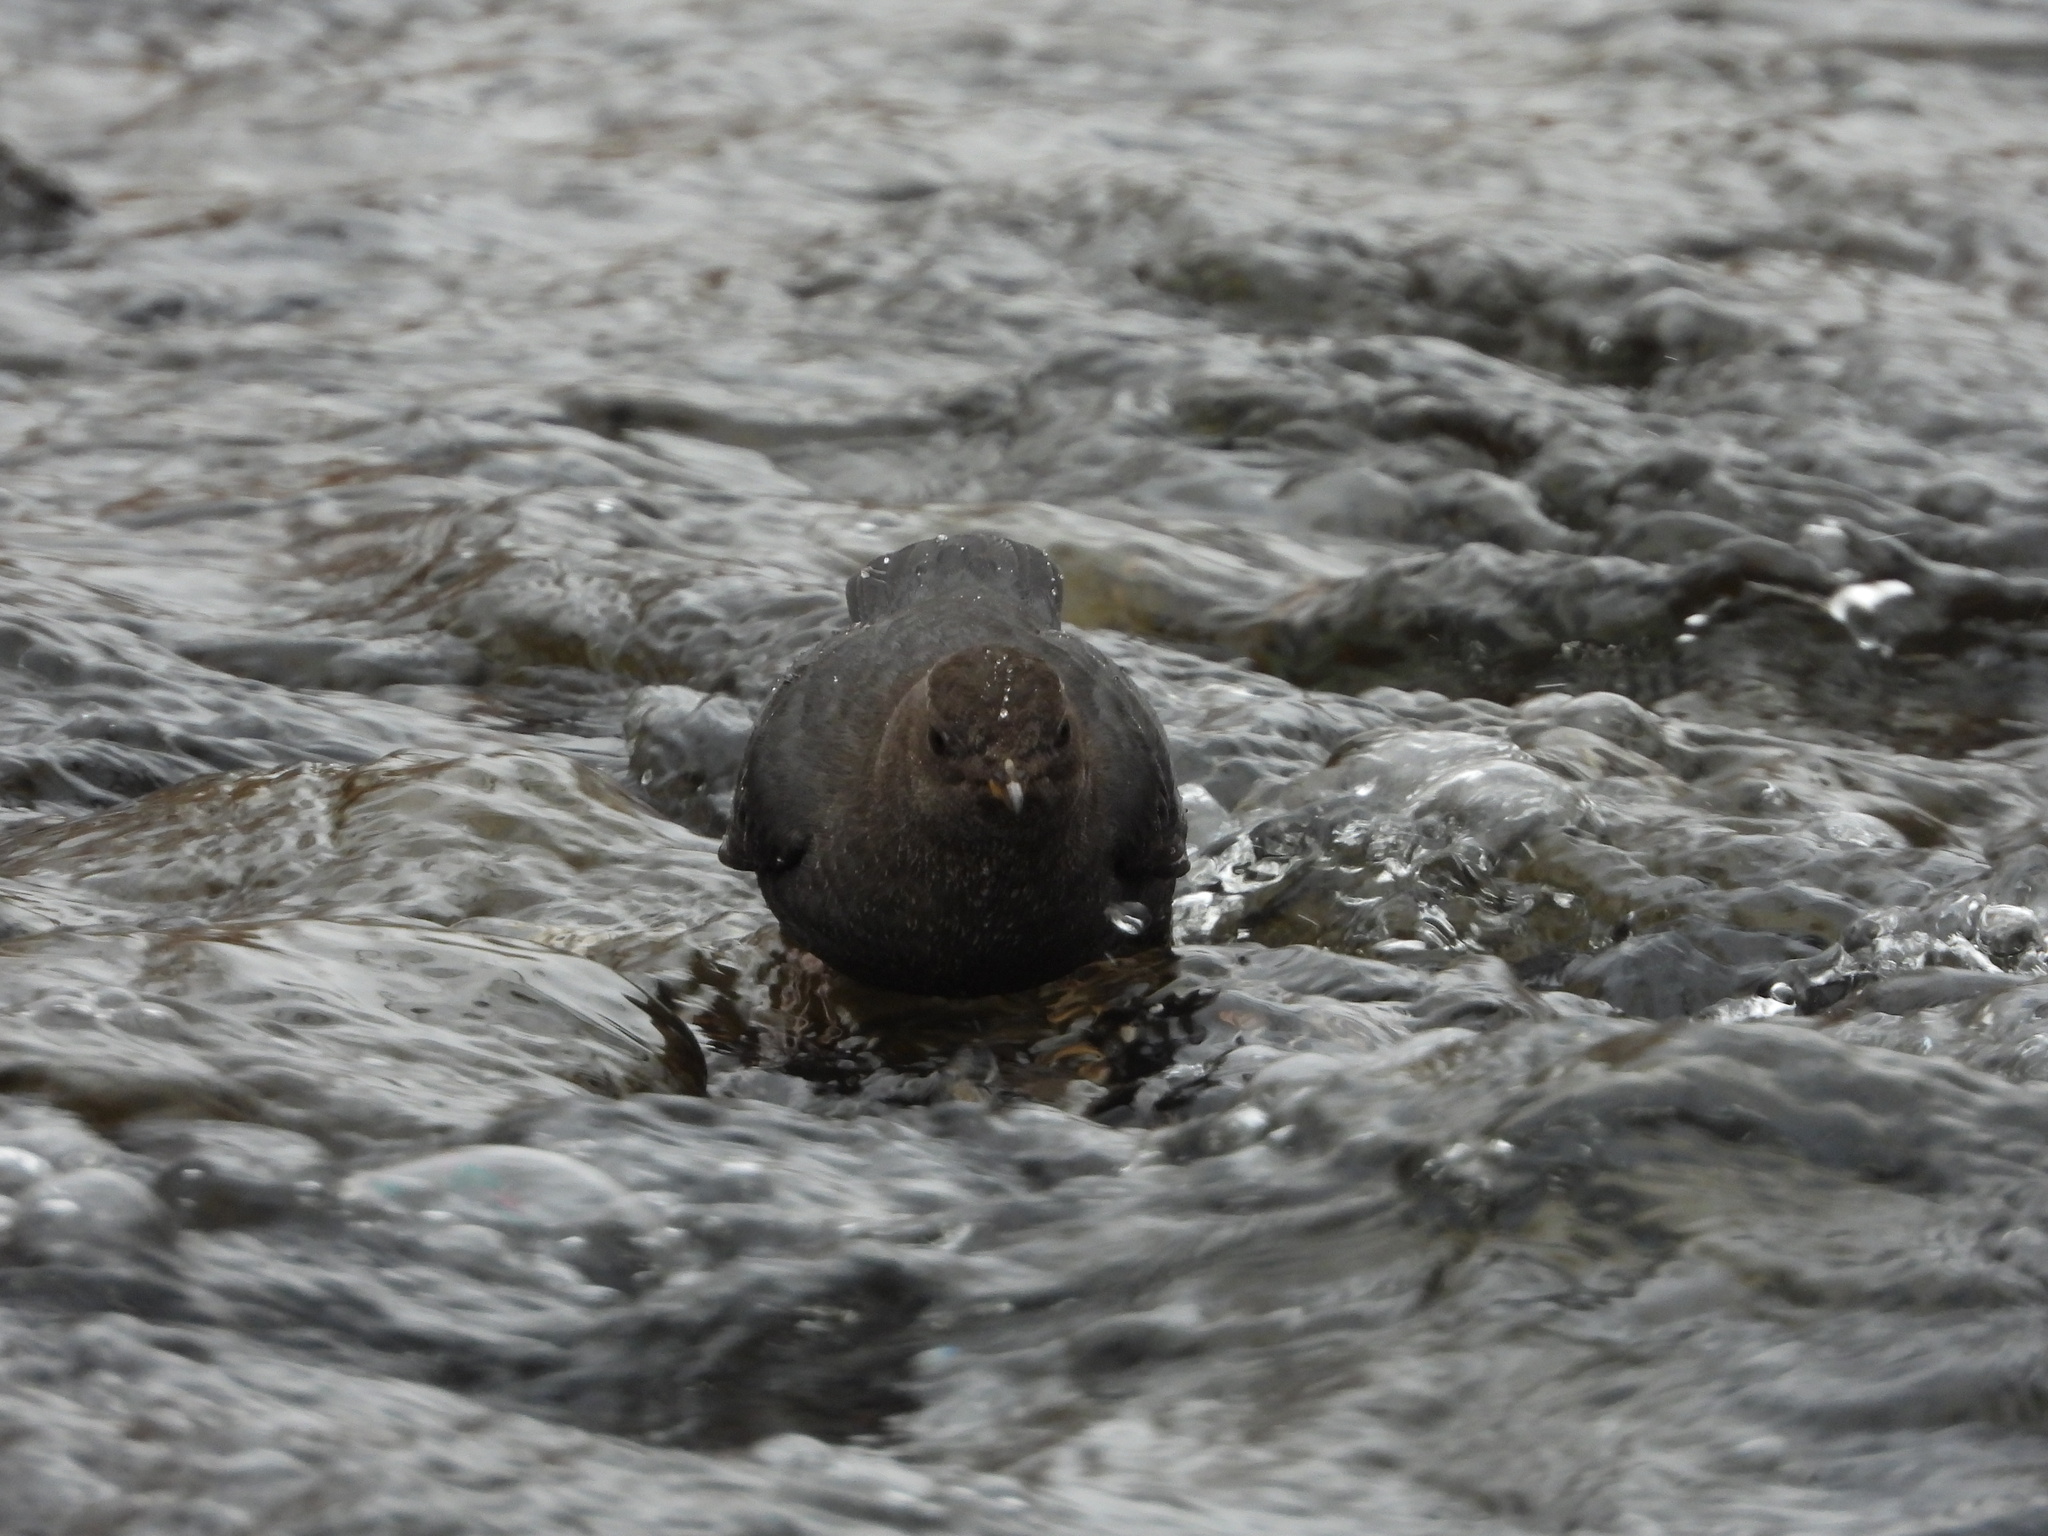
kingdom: Animalia
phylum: Chordata
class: Aves
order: Passeriformes
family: Cinclidae
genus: Cinclus
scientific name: Cinclus mexicanus
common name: American dipper
